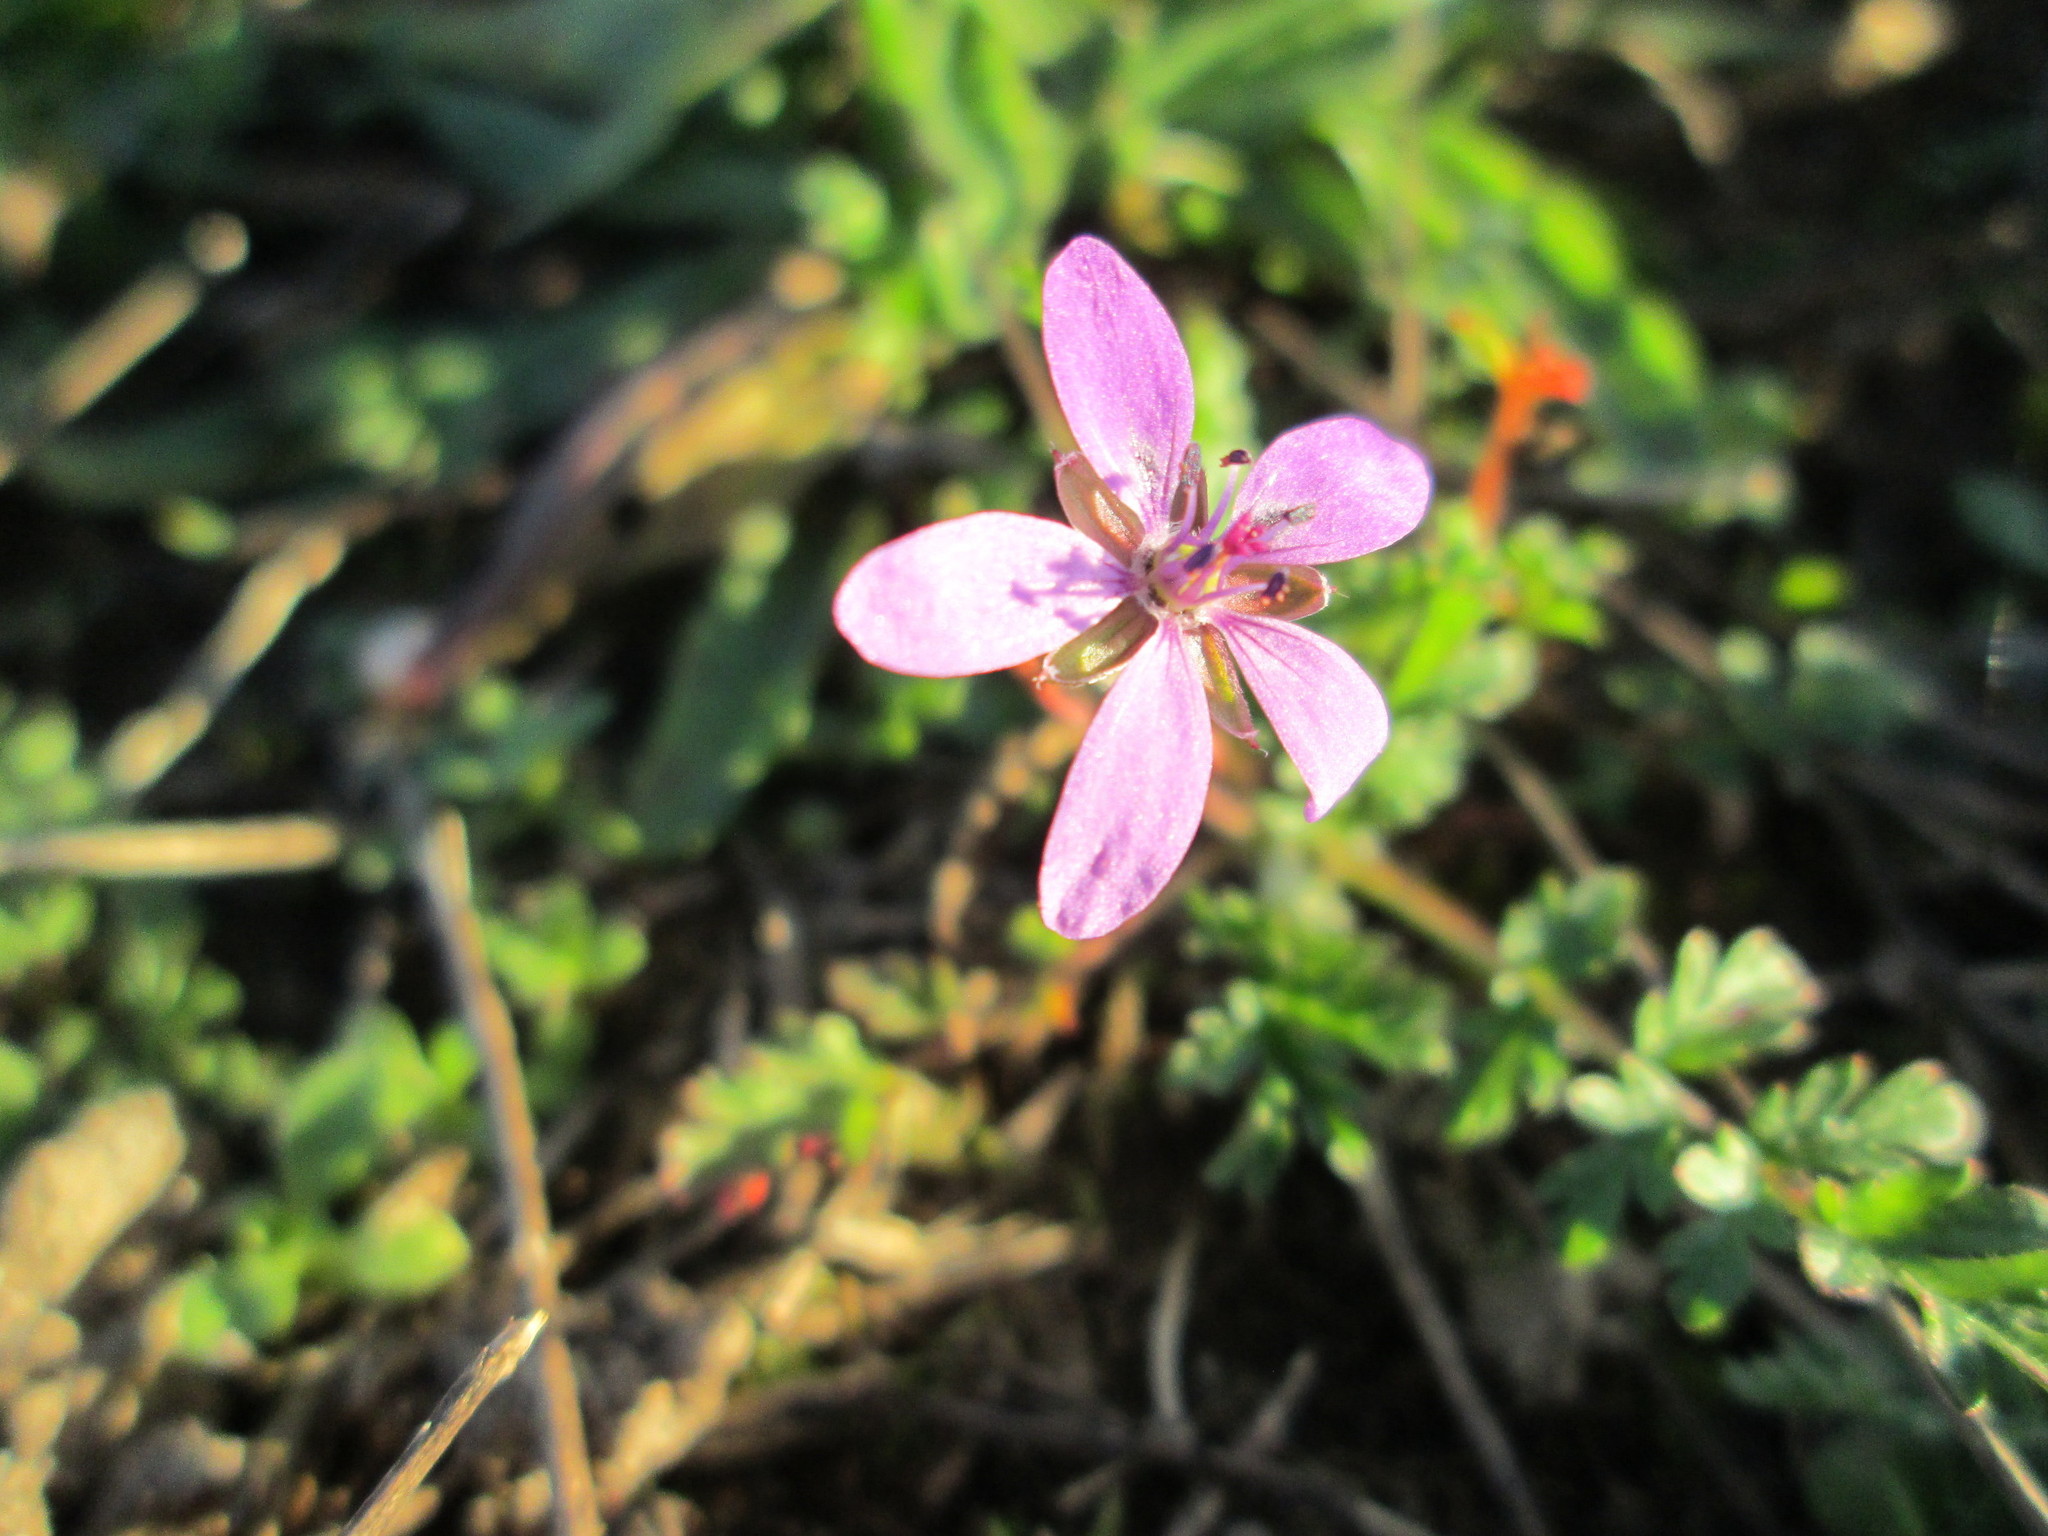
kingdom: Plantae
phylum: Tracheophyta
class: Magnoliopsida
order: Geraniales
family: Geraniaceae
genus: Erodium
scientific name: Erodium cicutarium
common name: Common stork's-bill
